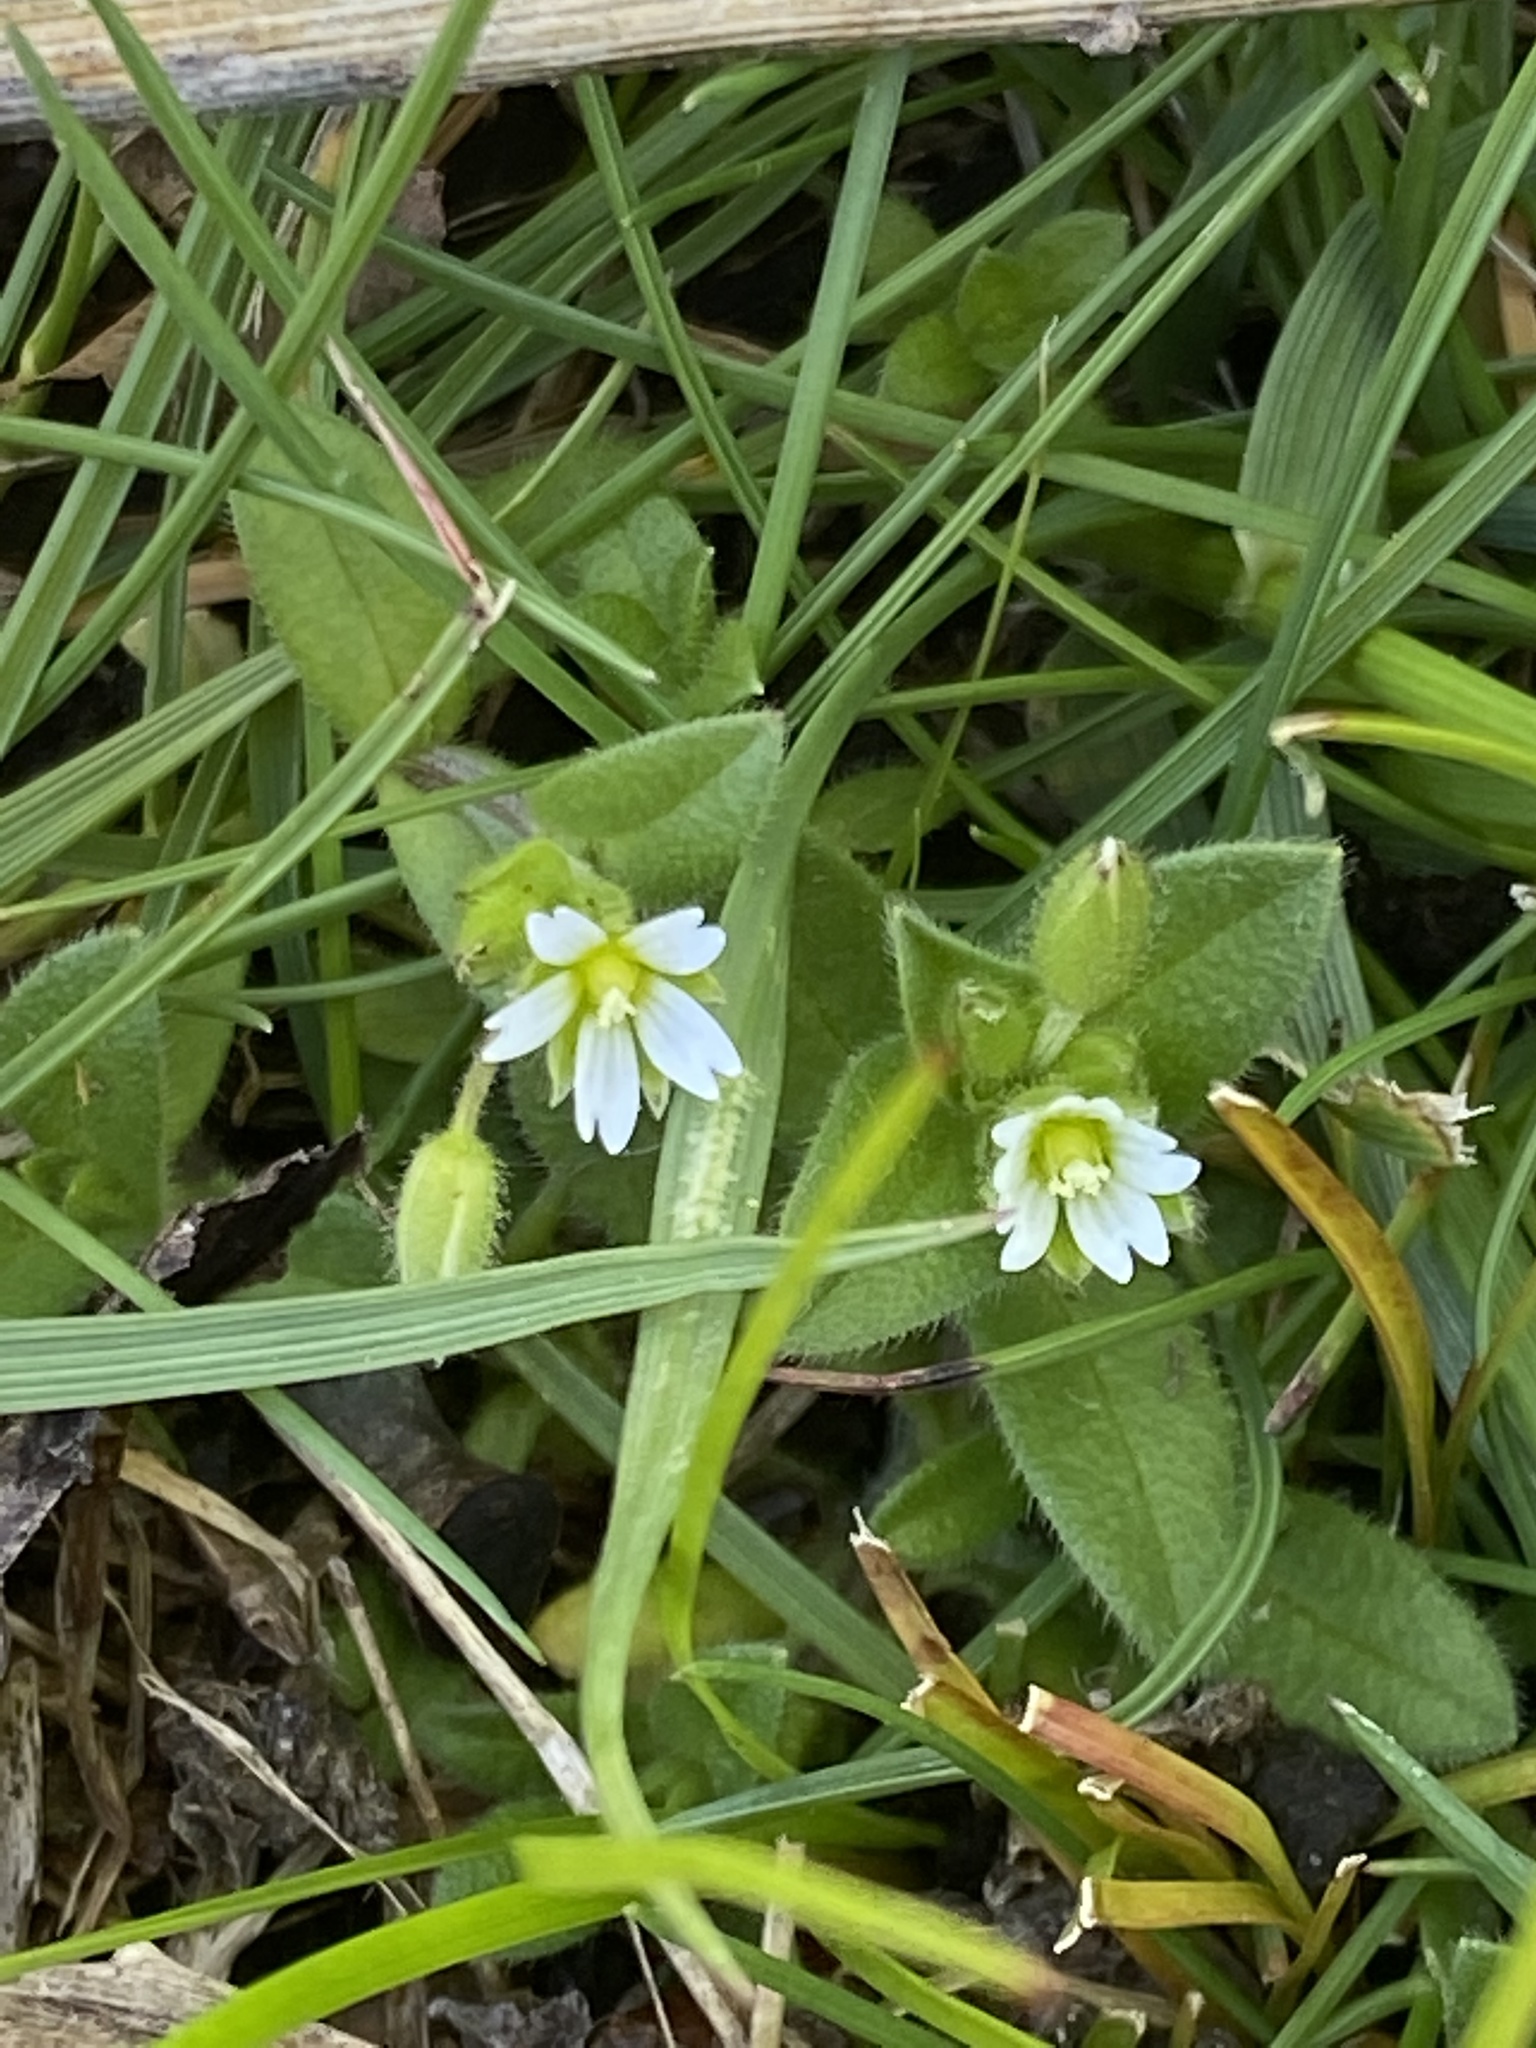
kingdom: Plantae
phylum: Tracheophyta
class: Magnoliopsida
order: Caryophyllales
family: Caryophyllaceae
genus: Cerastium
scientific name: Cerastium fontanum
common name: Common mouse-ear
